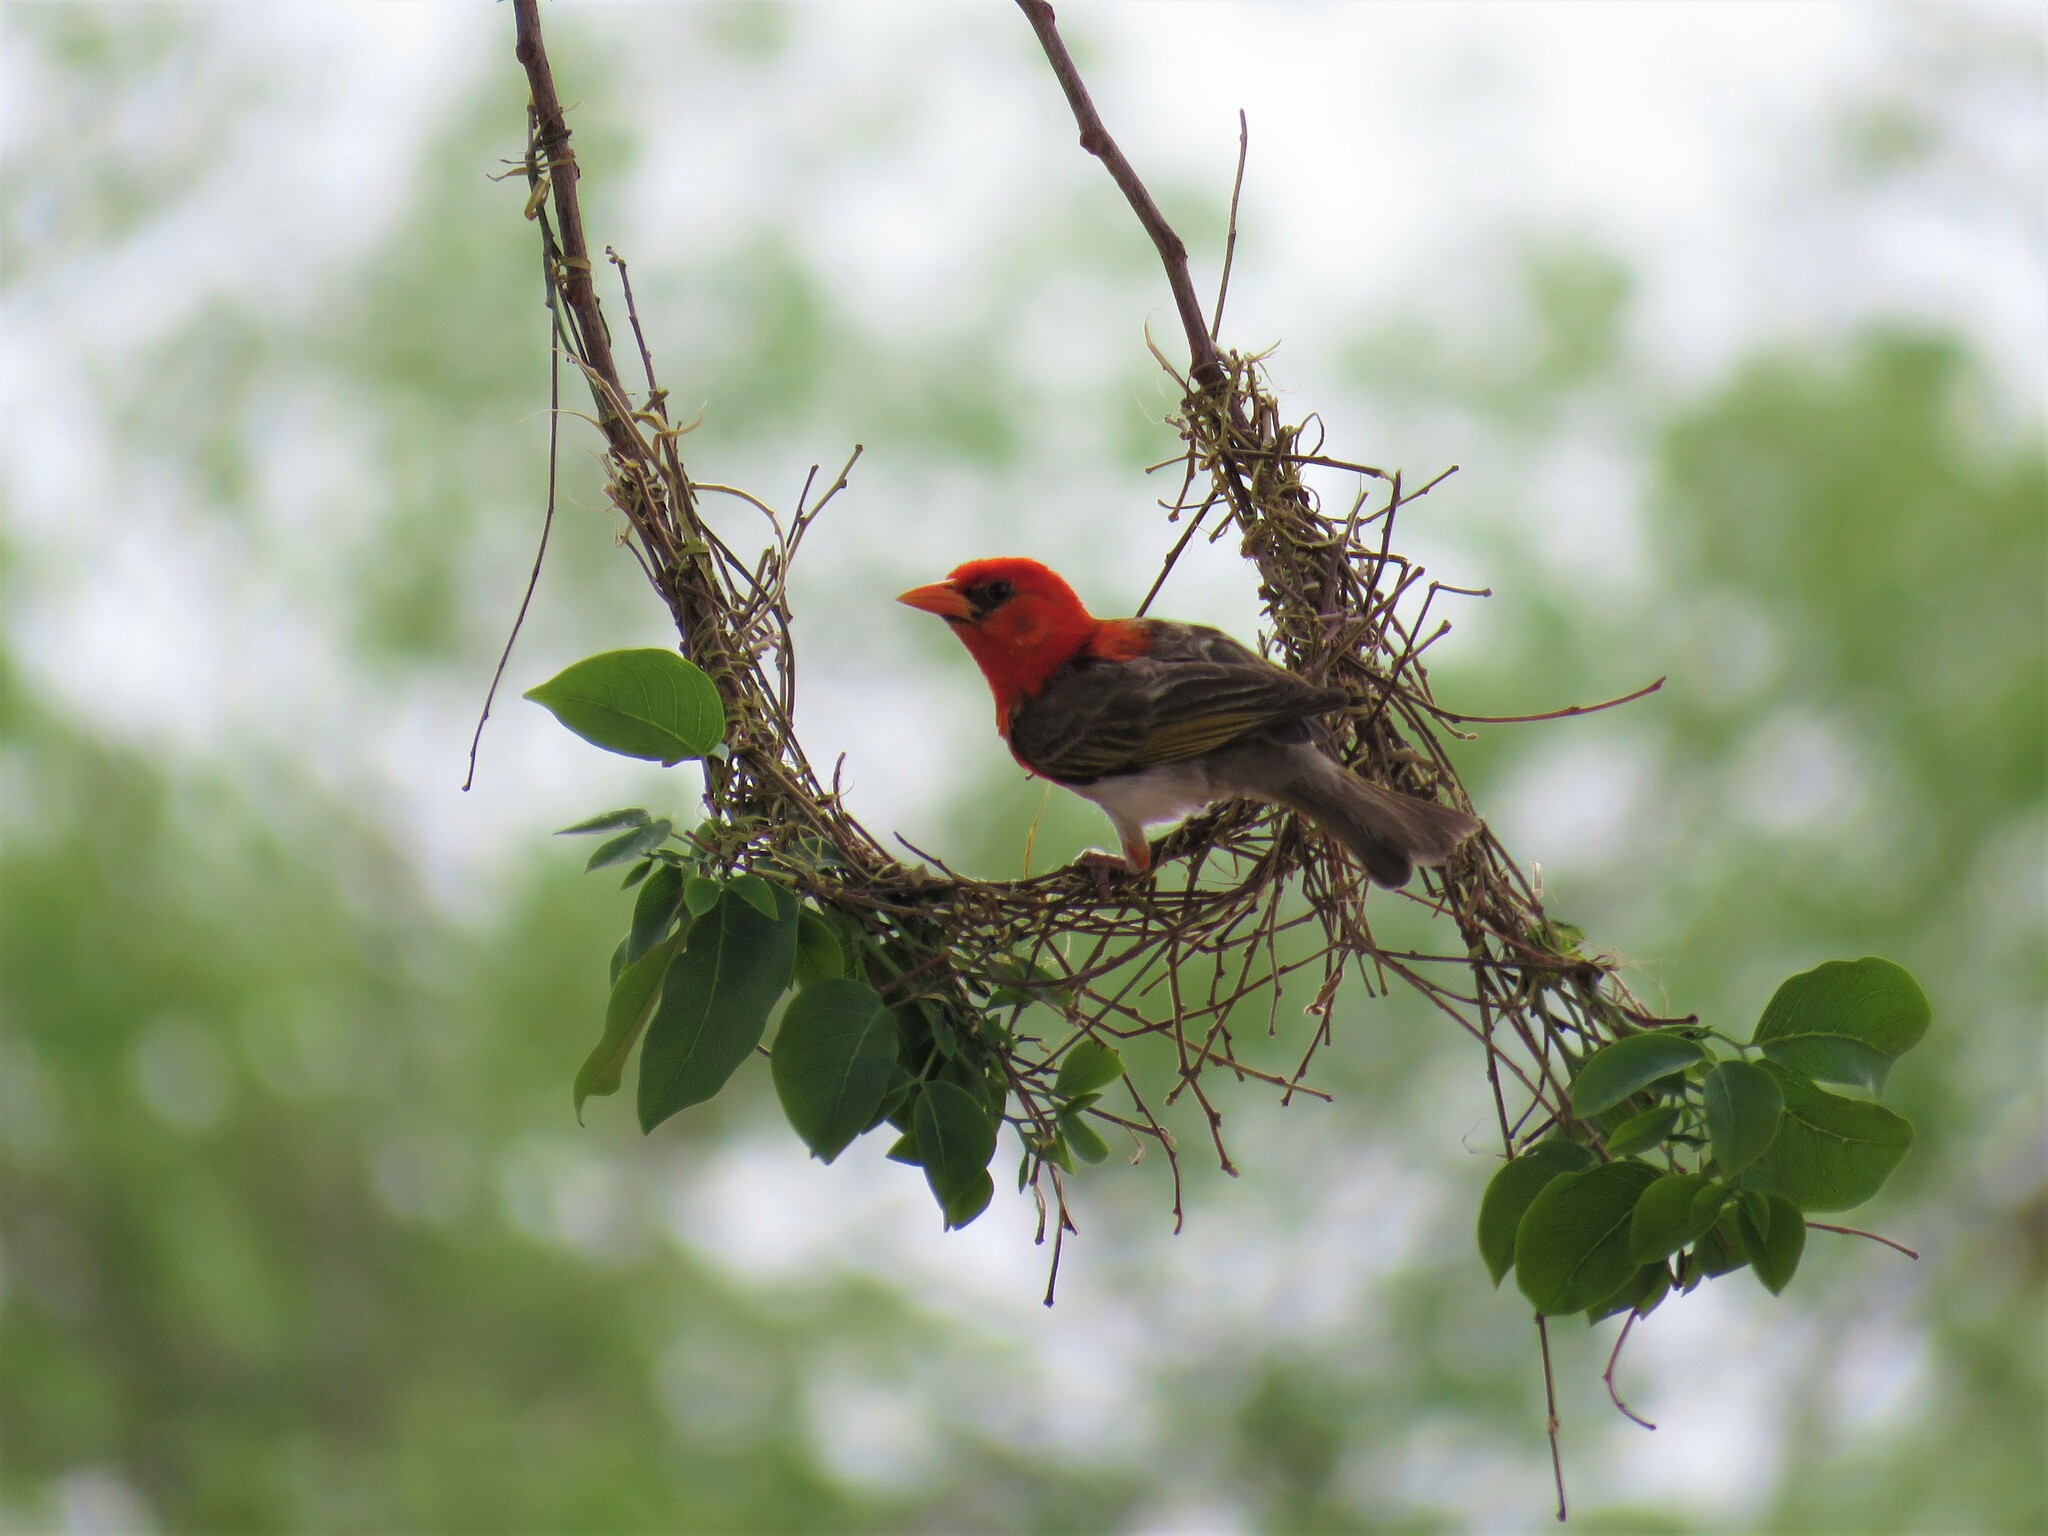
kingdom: Animalia
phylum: Chordata
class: Aves
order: Passeriformes
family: Ploceidae
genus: Anaplectes
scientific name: Anaplectes rubriceps
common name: Red-headed weaver
